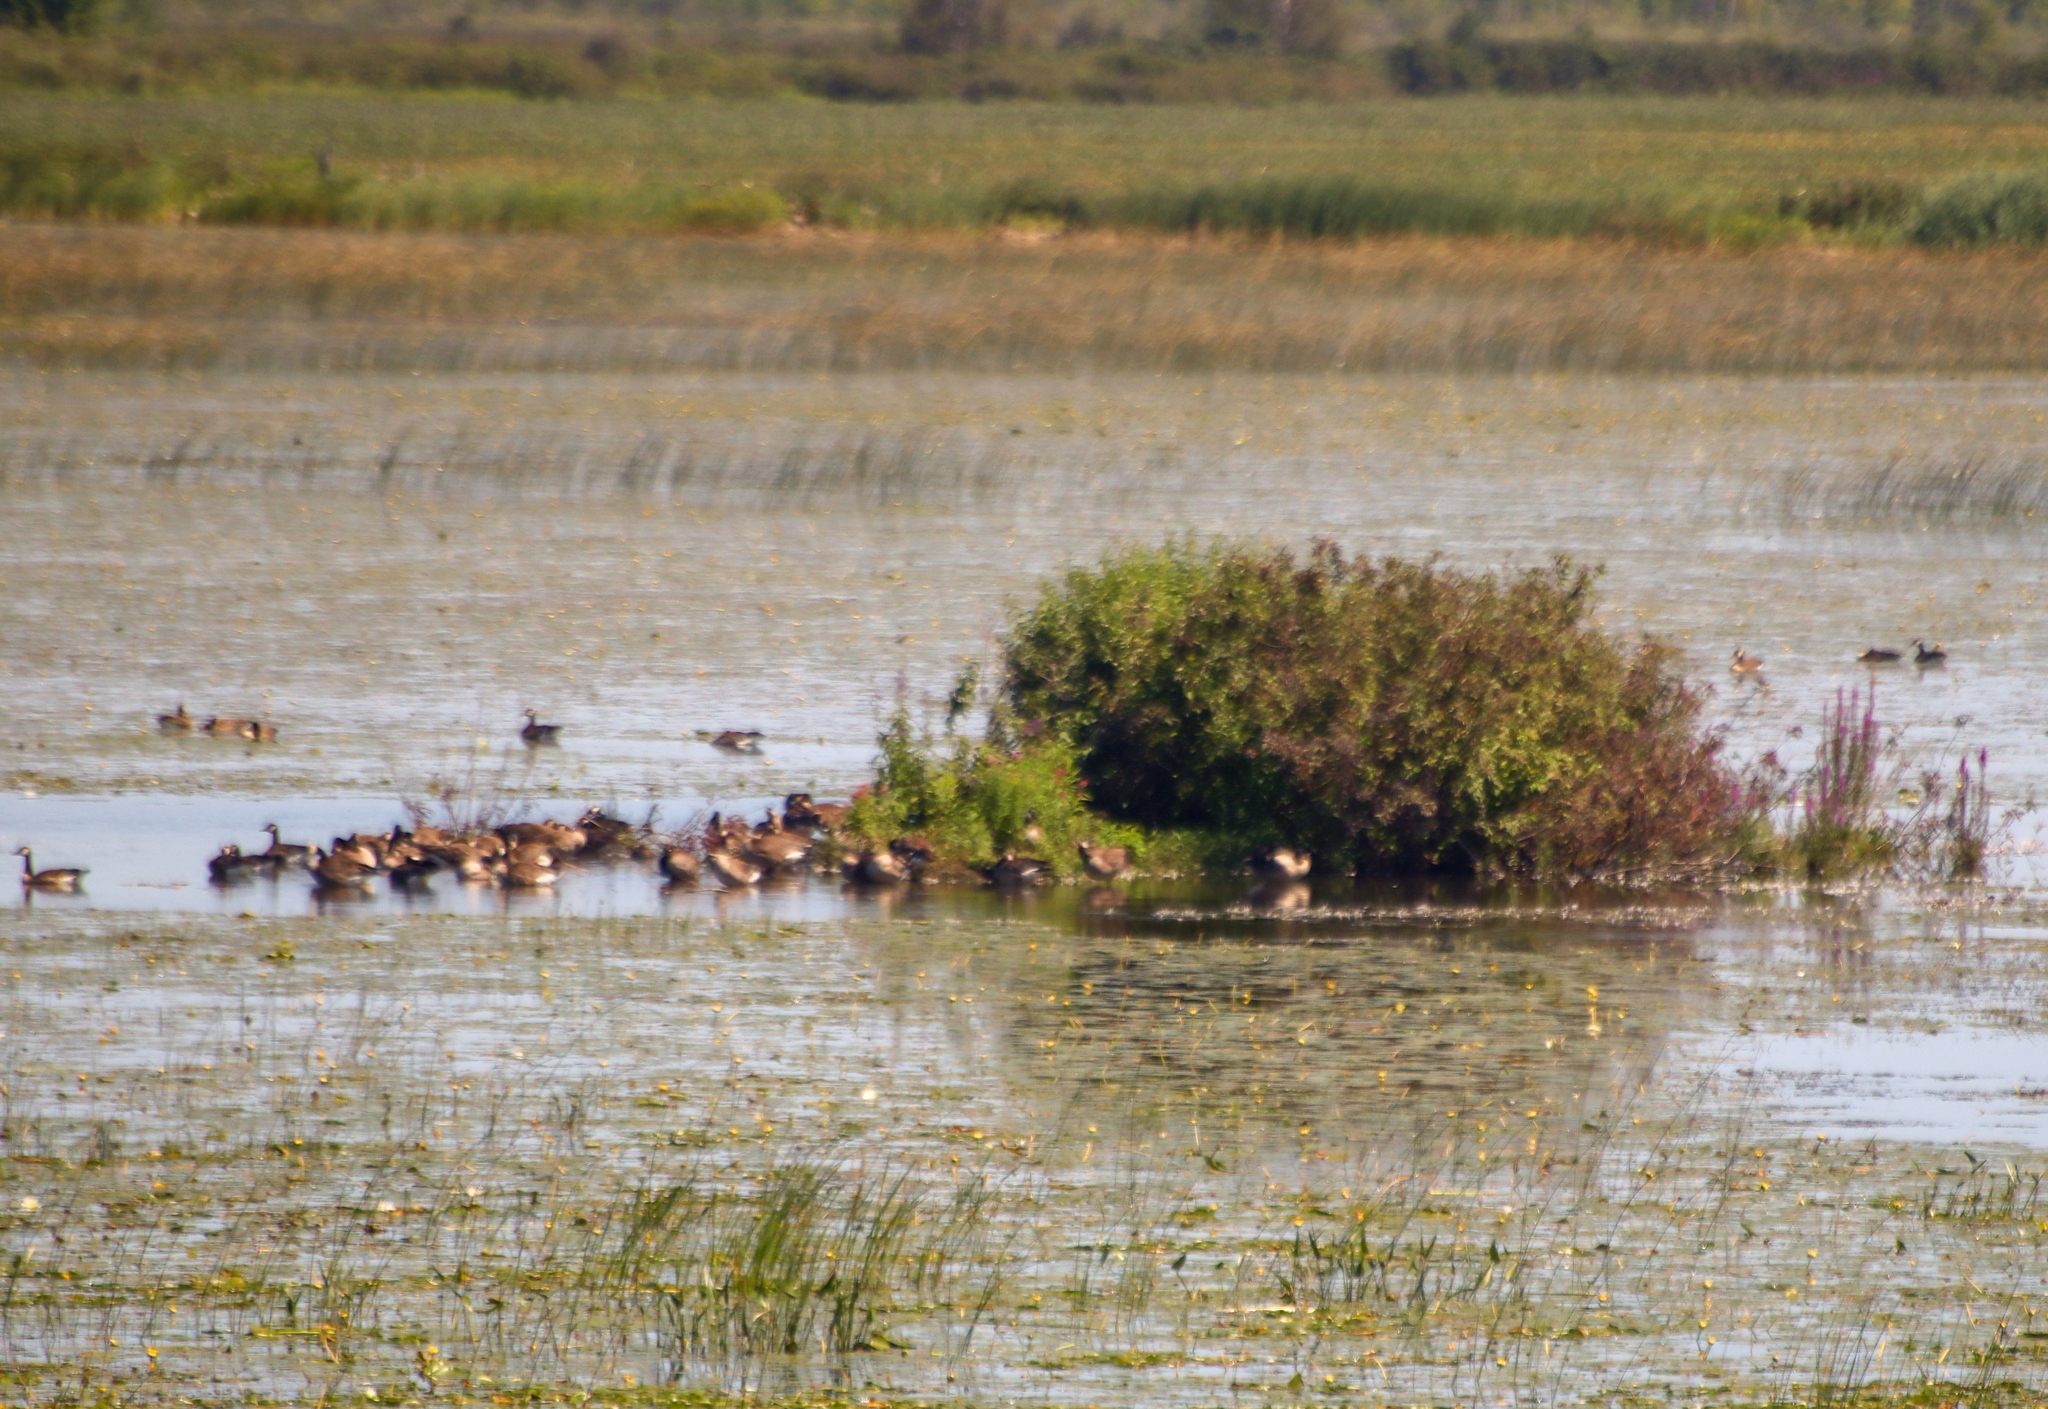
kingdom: Animalia
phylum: Chordata
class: Aves
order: Anseriformes
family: Anatidae
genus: Branta
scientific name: Branta canadensis
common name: Canada goose
